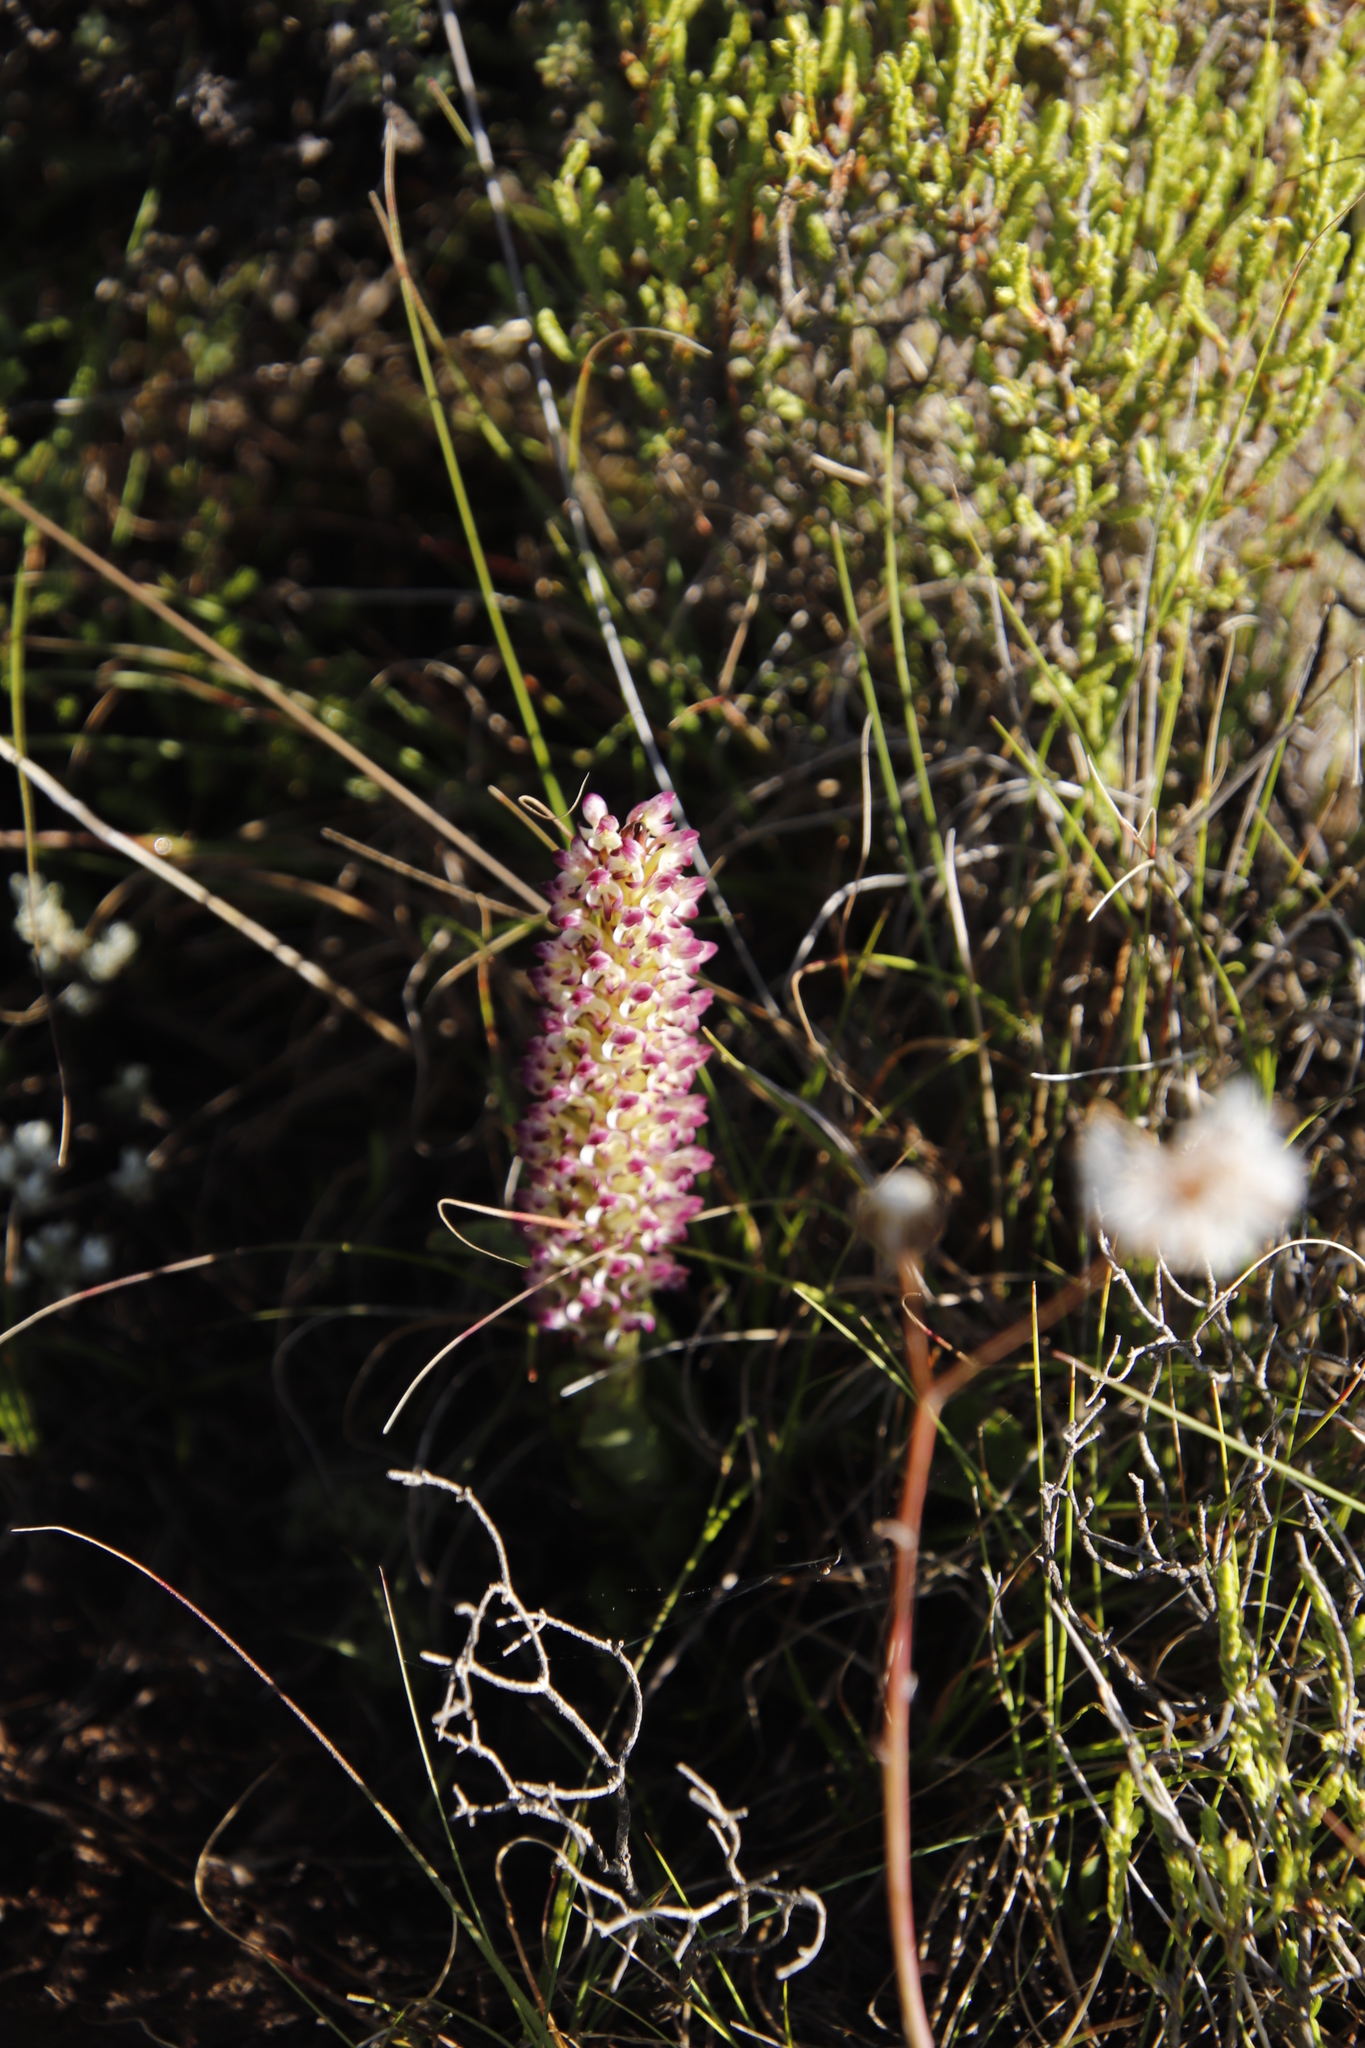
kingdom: Plantae
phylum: Tracheophyta
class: Liliopsida
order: Asparagales
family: Orchidaceae
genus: Disa
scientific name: Disa fragrans
